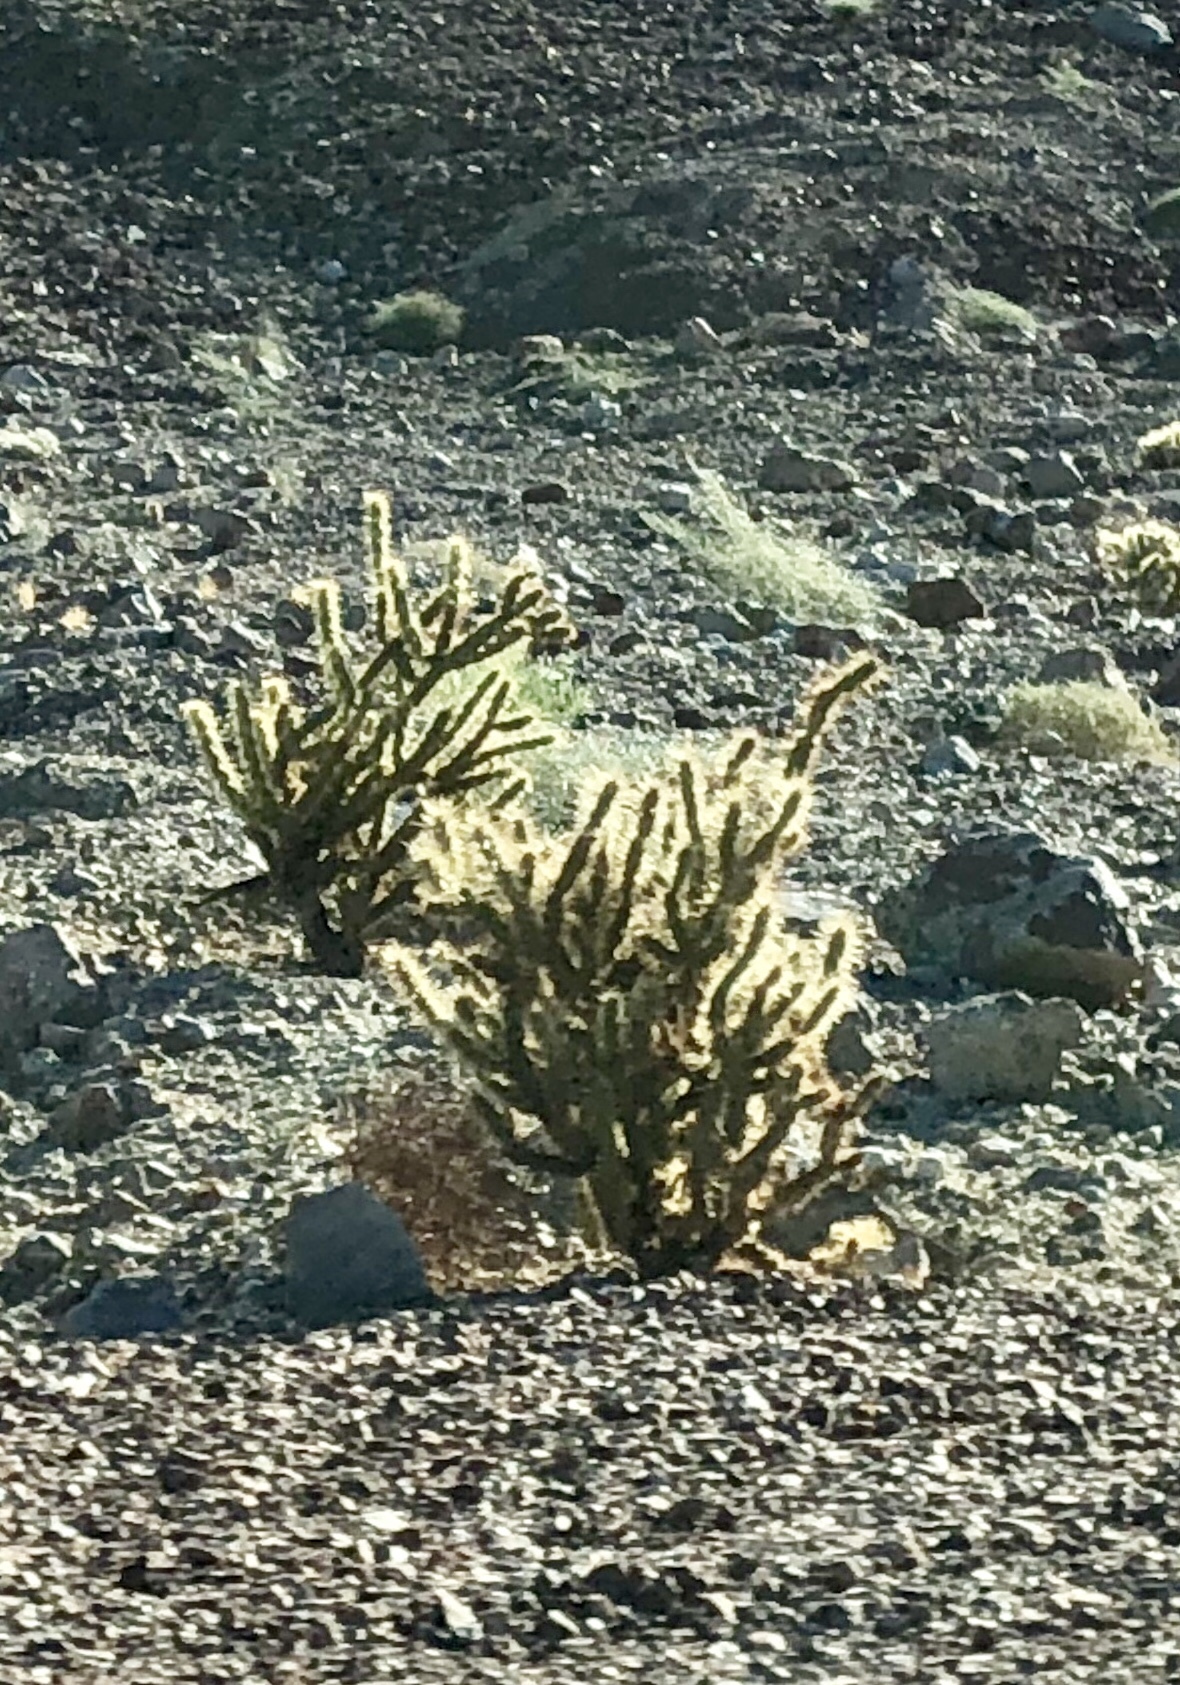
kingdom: Plantae
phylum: Tracheophyta
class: Magnoliopsida
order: Caryophyllales
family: Cactaceae
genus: Cylindropuntia
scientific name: Cylindropuntia acanthocarpa
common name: Buckhorn cholla
